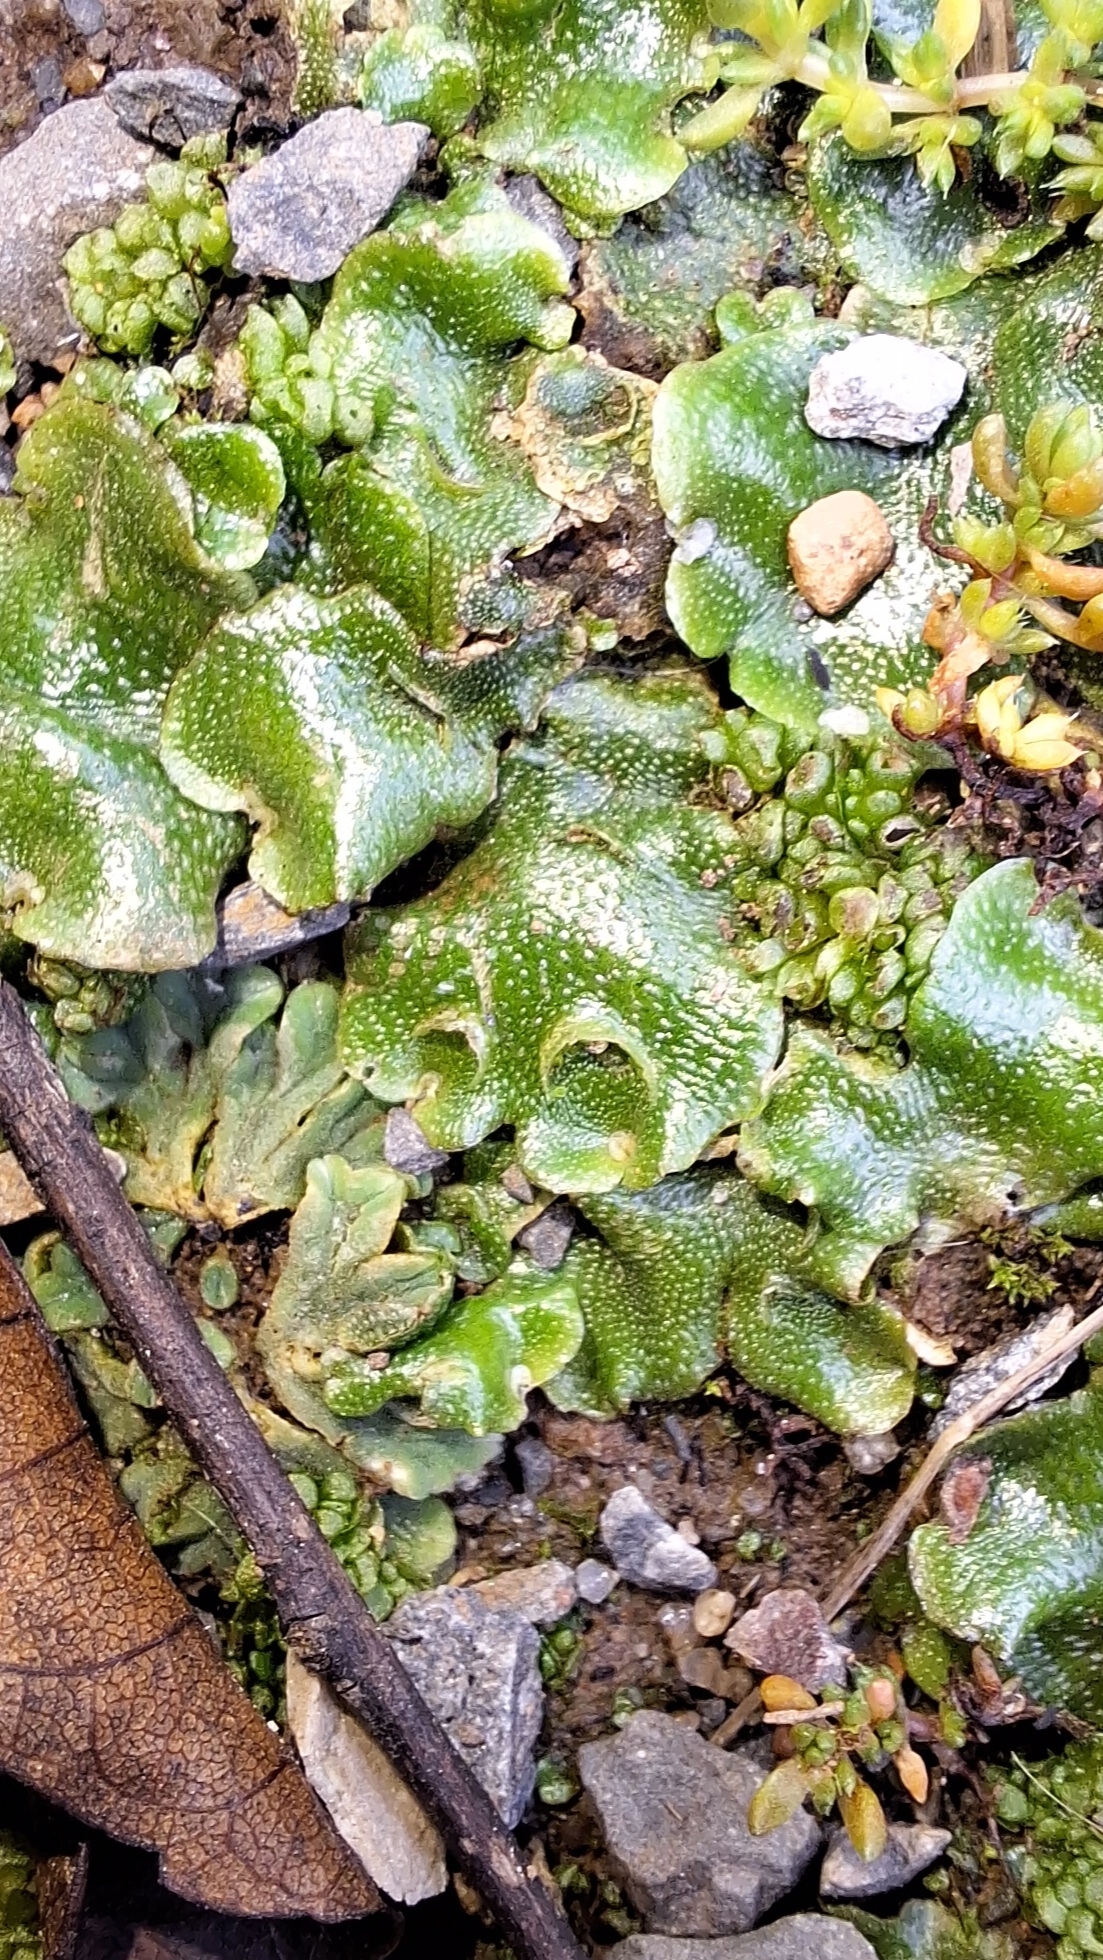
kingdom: Plantae
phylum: Marchantiophyta
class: Marchantiopsida
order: Lunulariales
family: Lunulariaceae
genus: Lunularia
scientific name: Lunularia cruciata
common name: Crescent-cup liverwort
